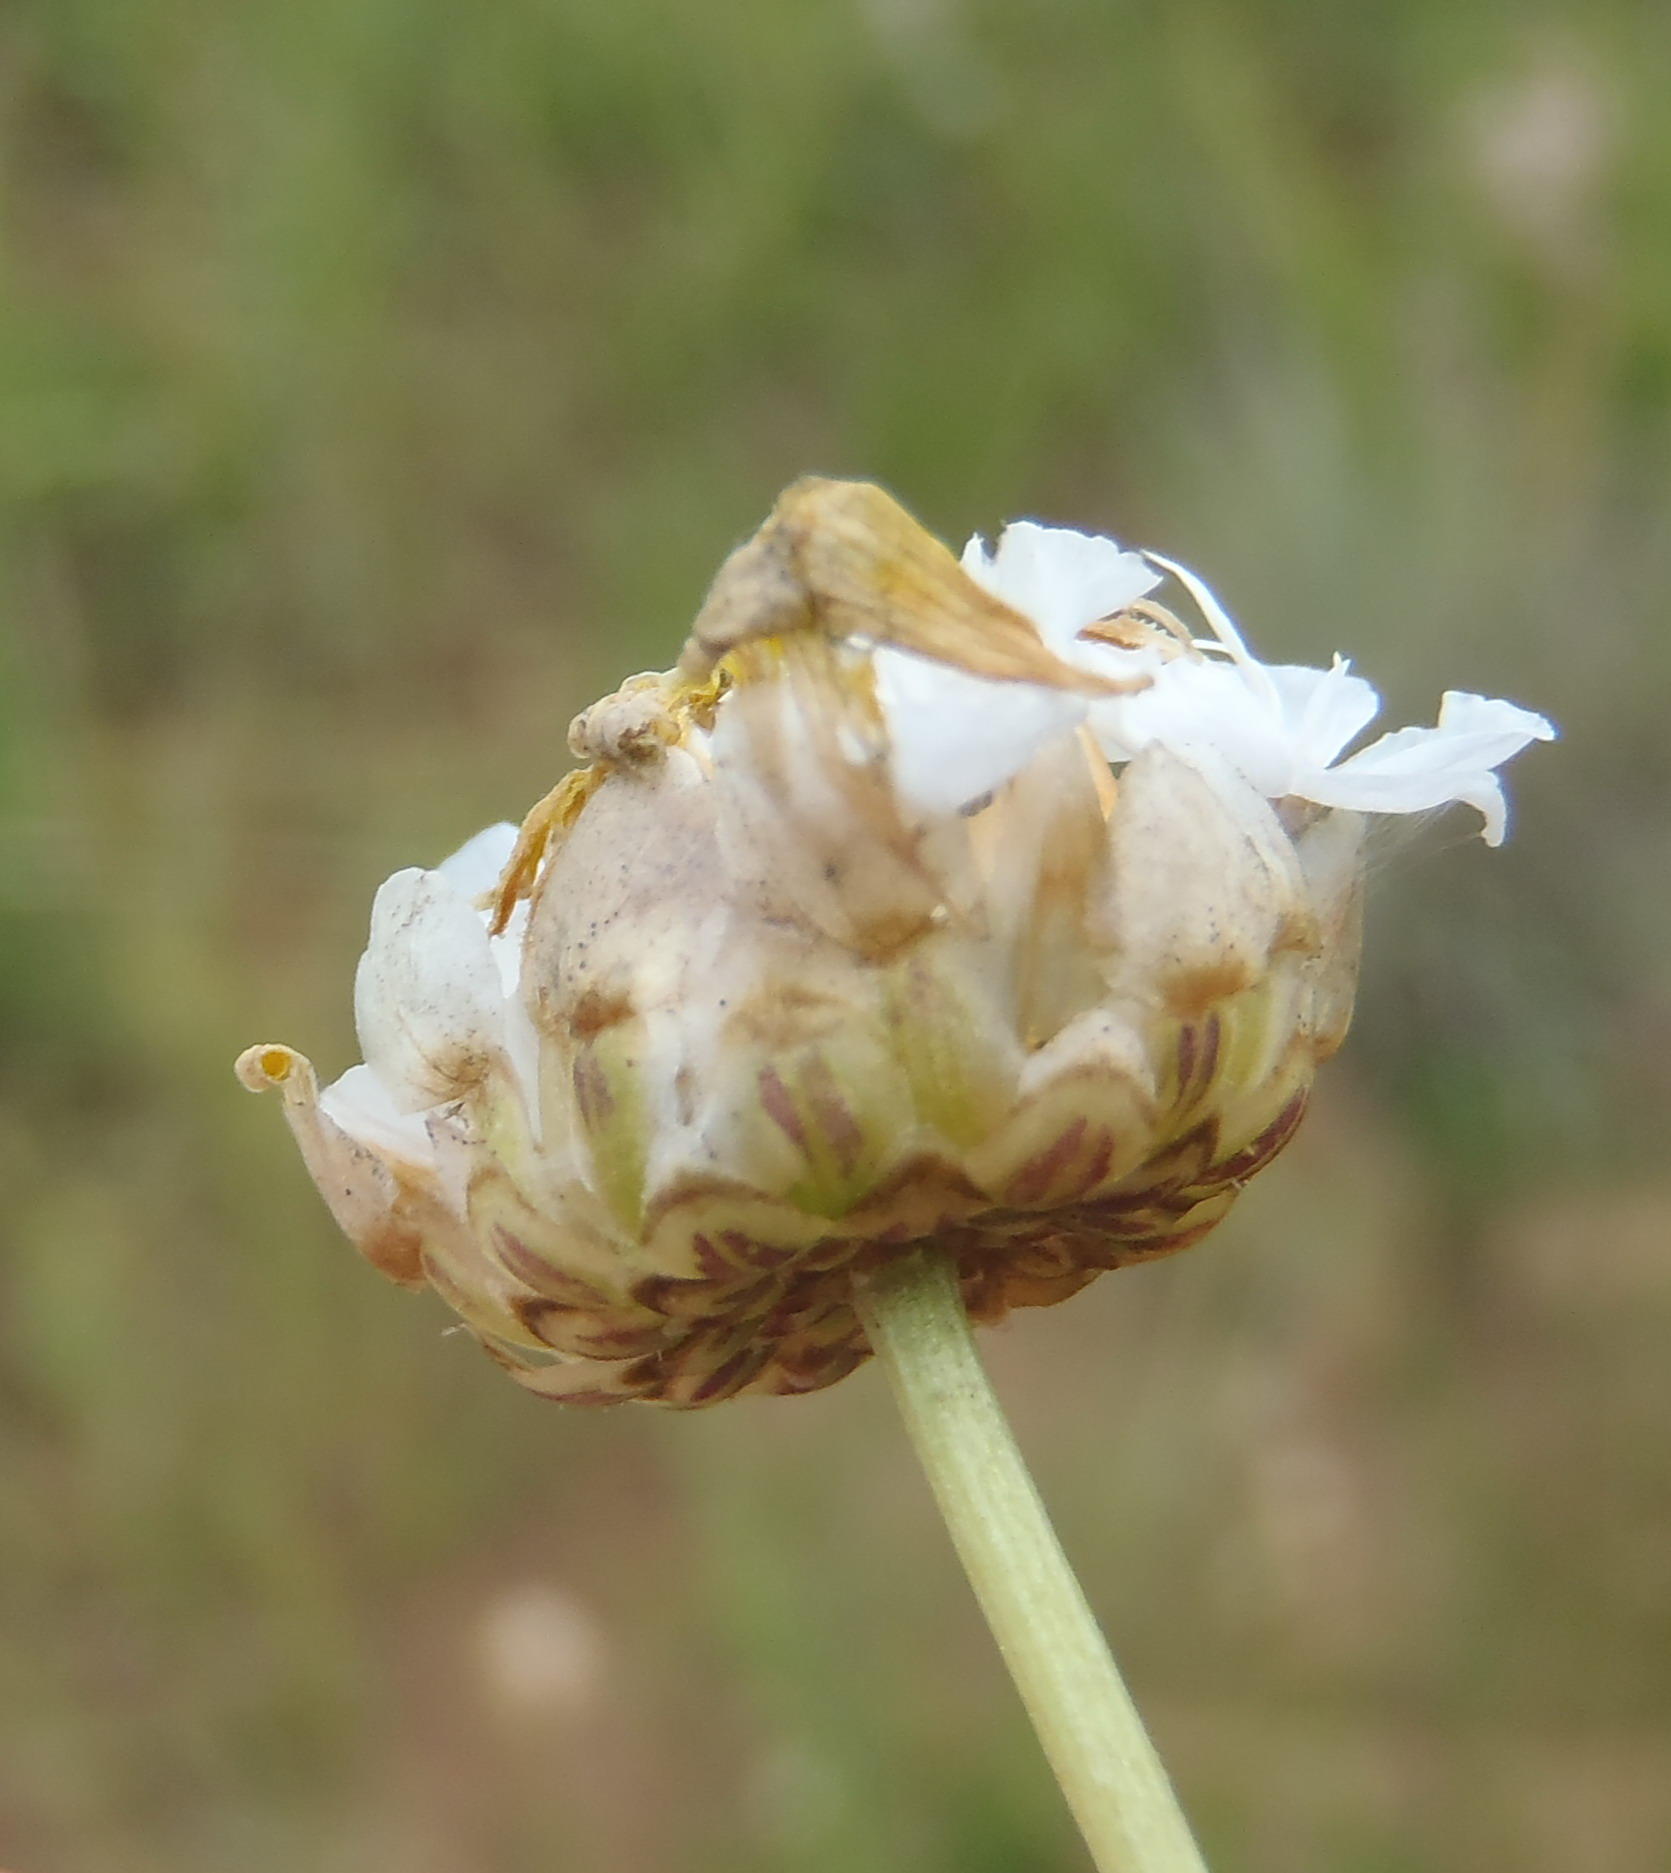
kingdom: Plantae
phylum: Tracheophyta
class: Magnoliopsida
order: Asterales
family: Asteraceae
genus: Ursinia
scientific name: Ursinia nana
